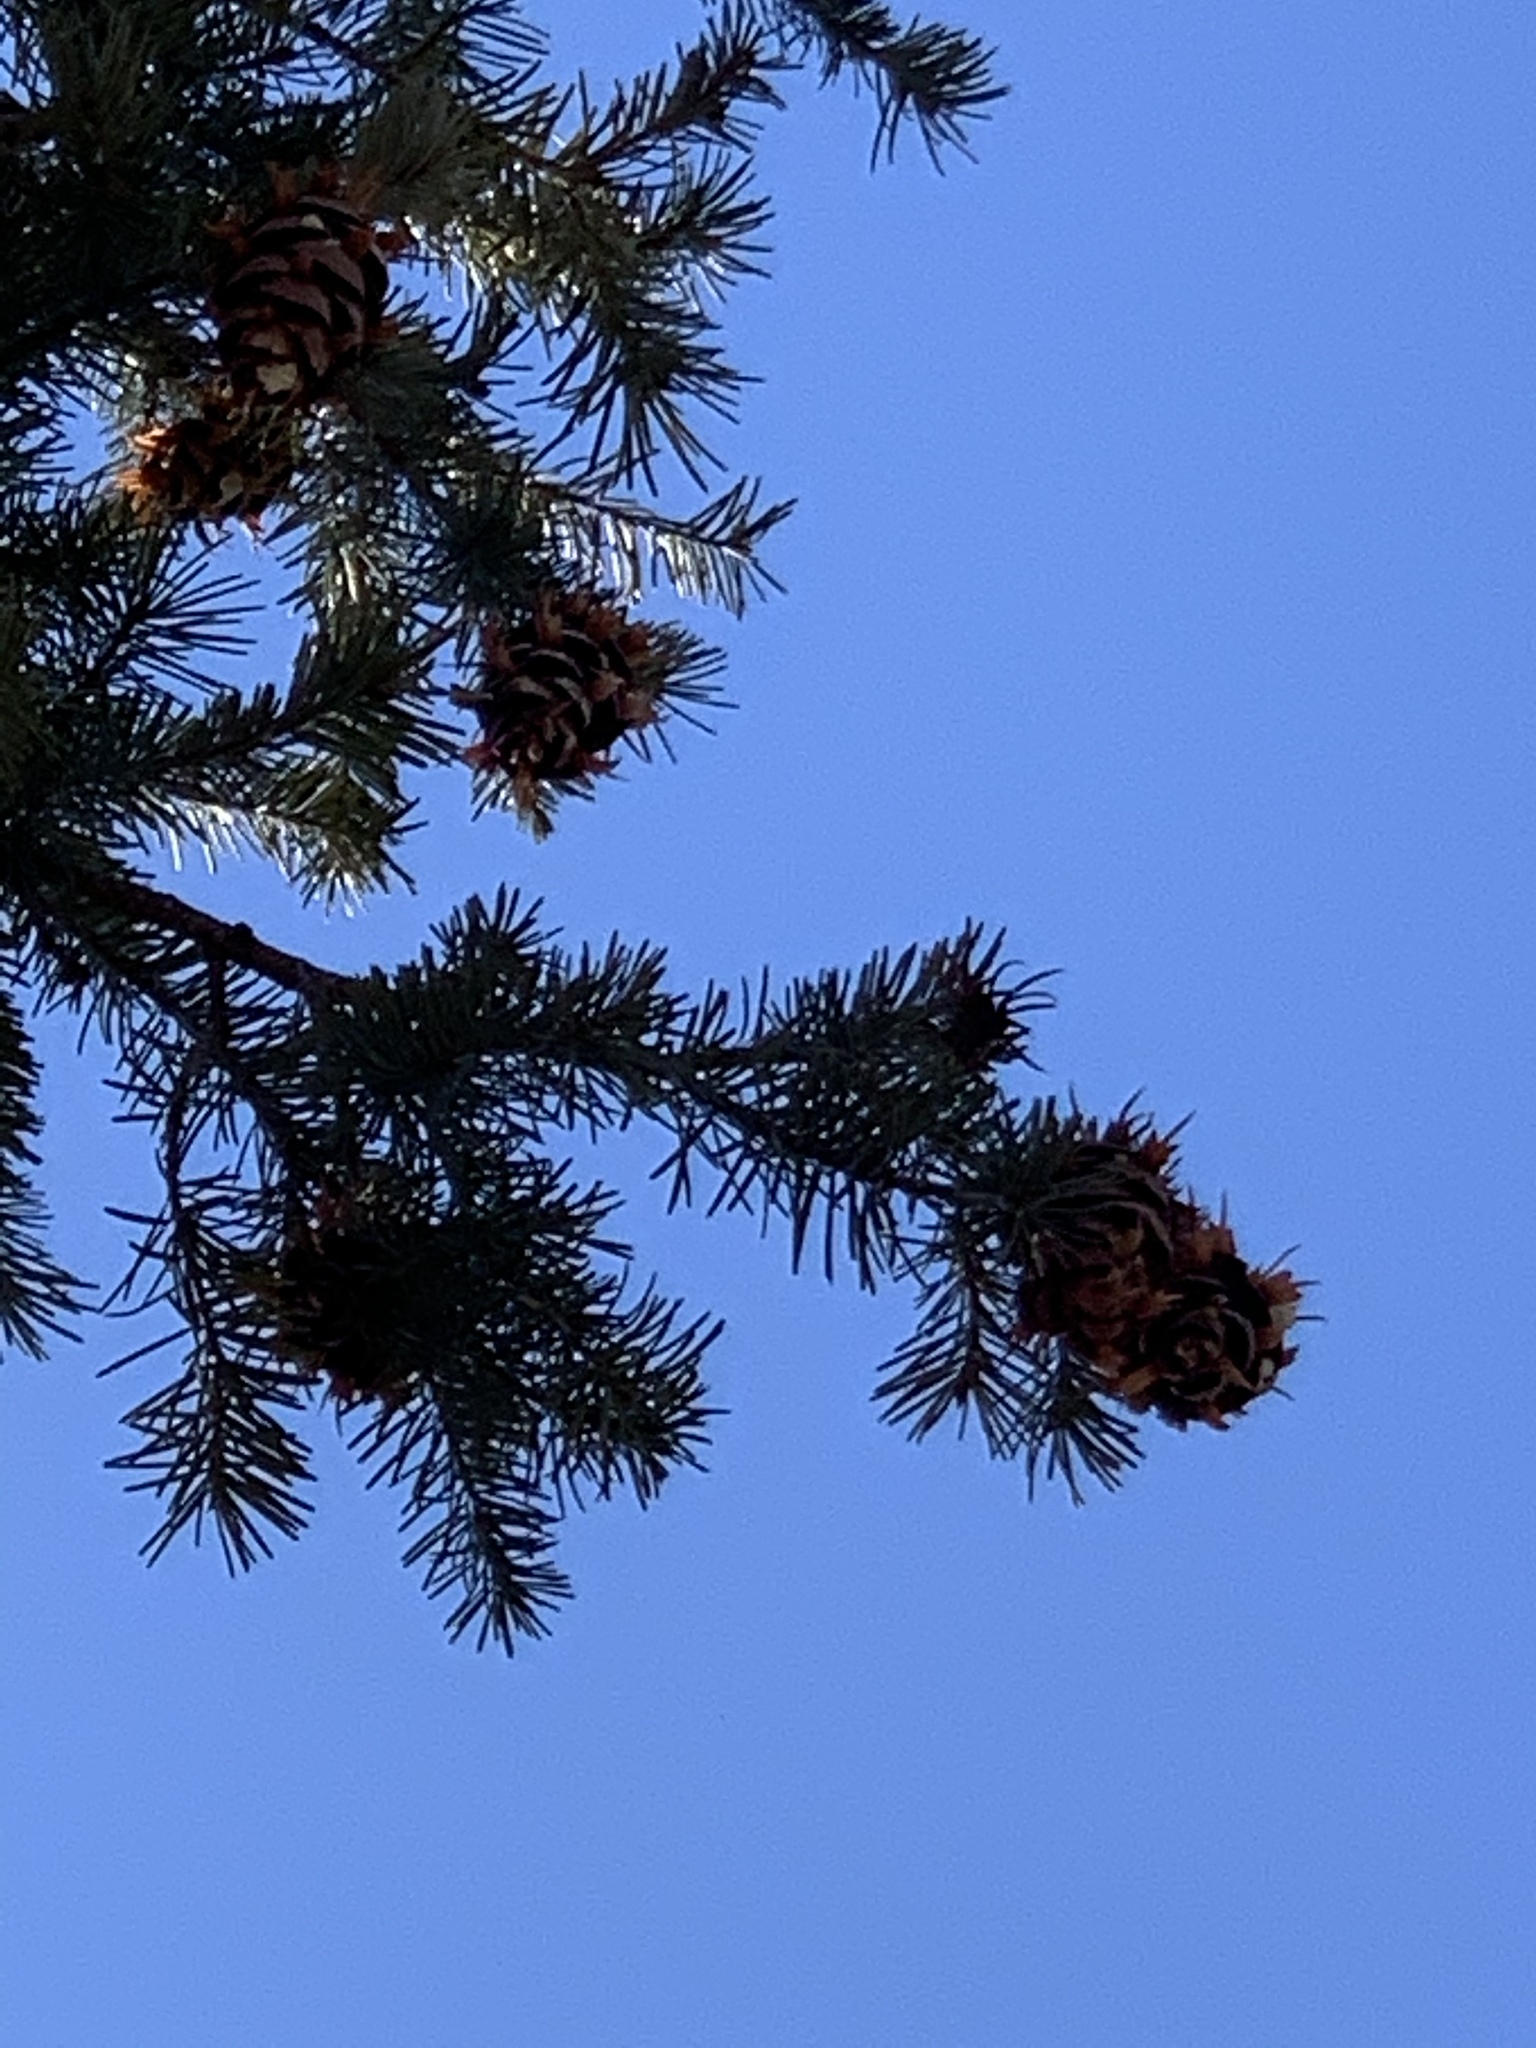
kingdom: Plantae
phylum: Tracheophyta
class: Pinopsida
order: Pinales
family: Pinaceae
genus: Pseudotsuga
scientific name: Pseudotsuga menziesii
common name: Douglas fir
